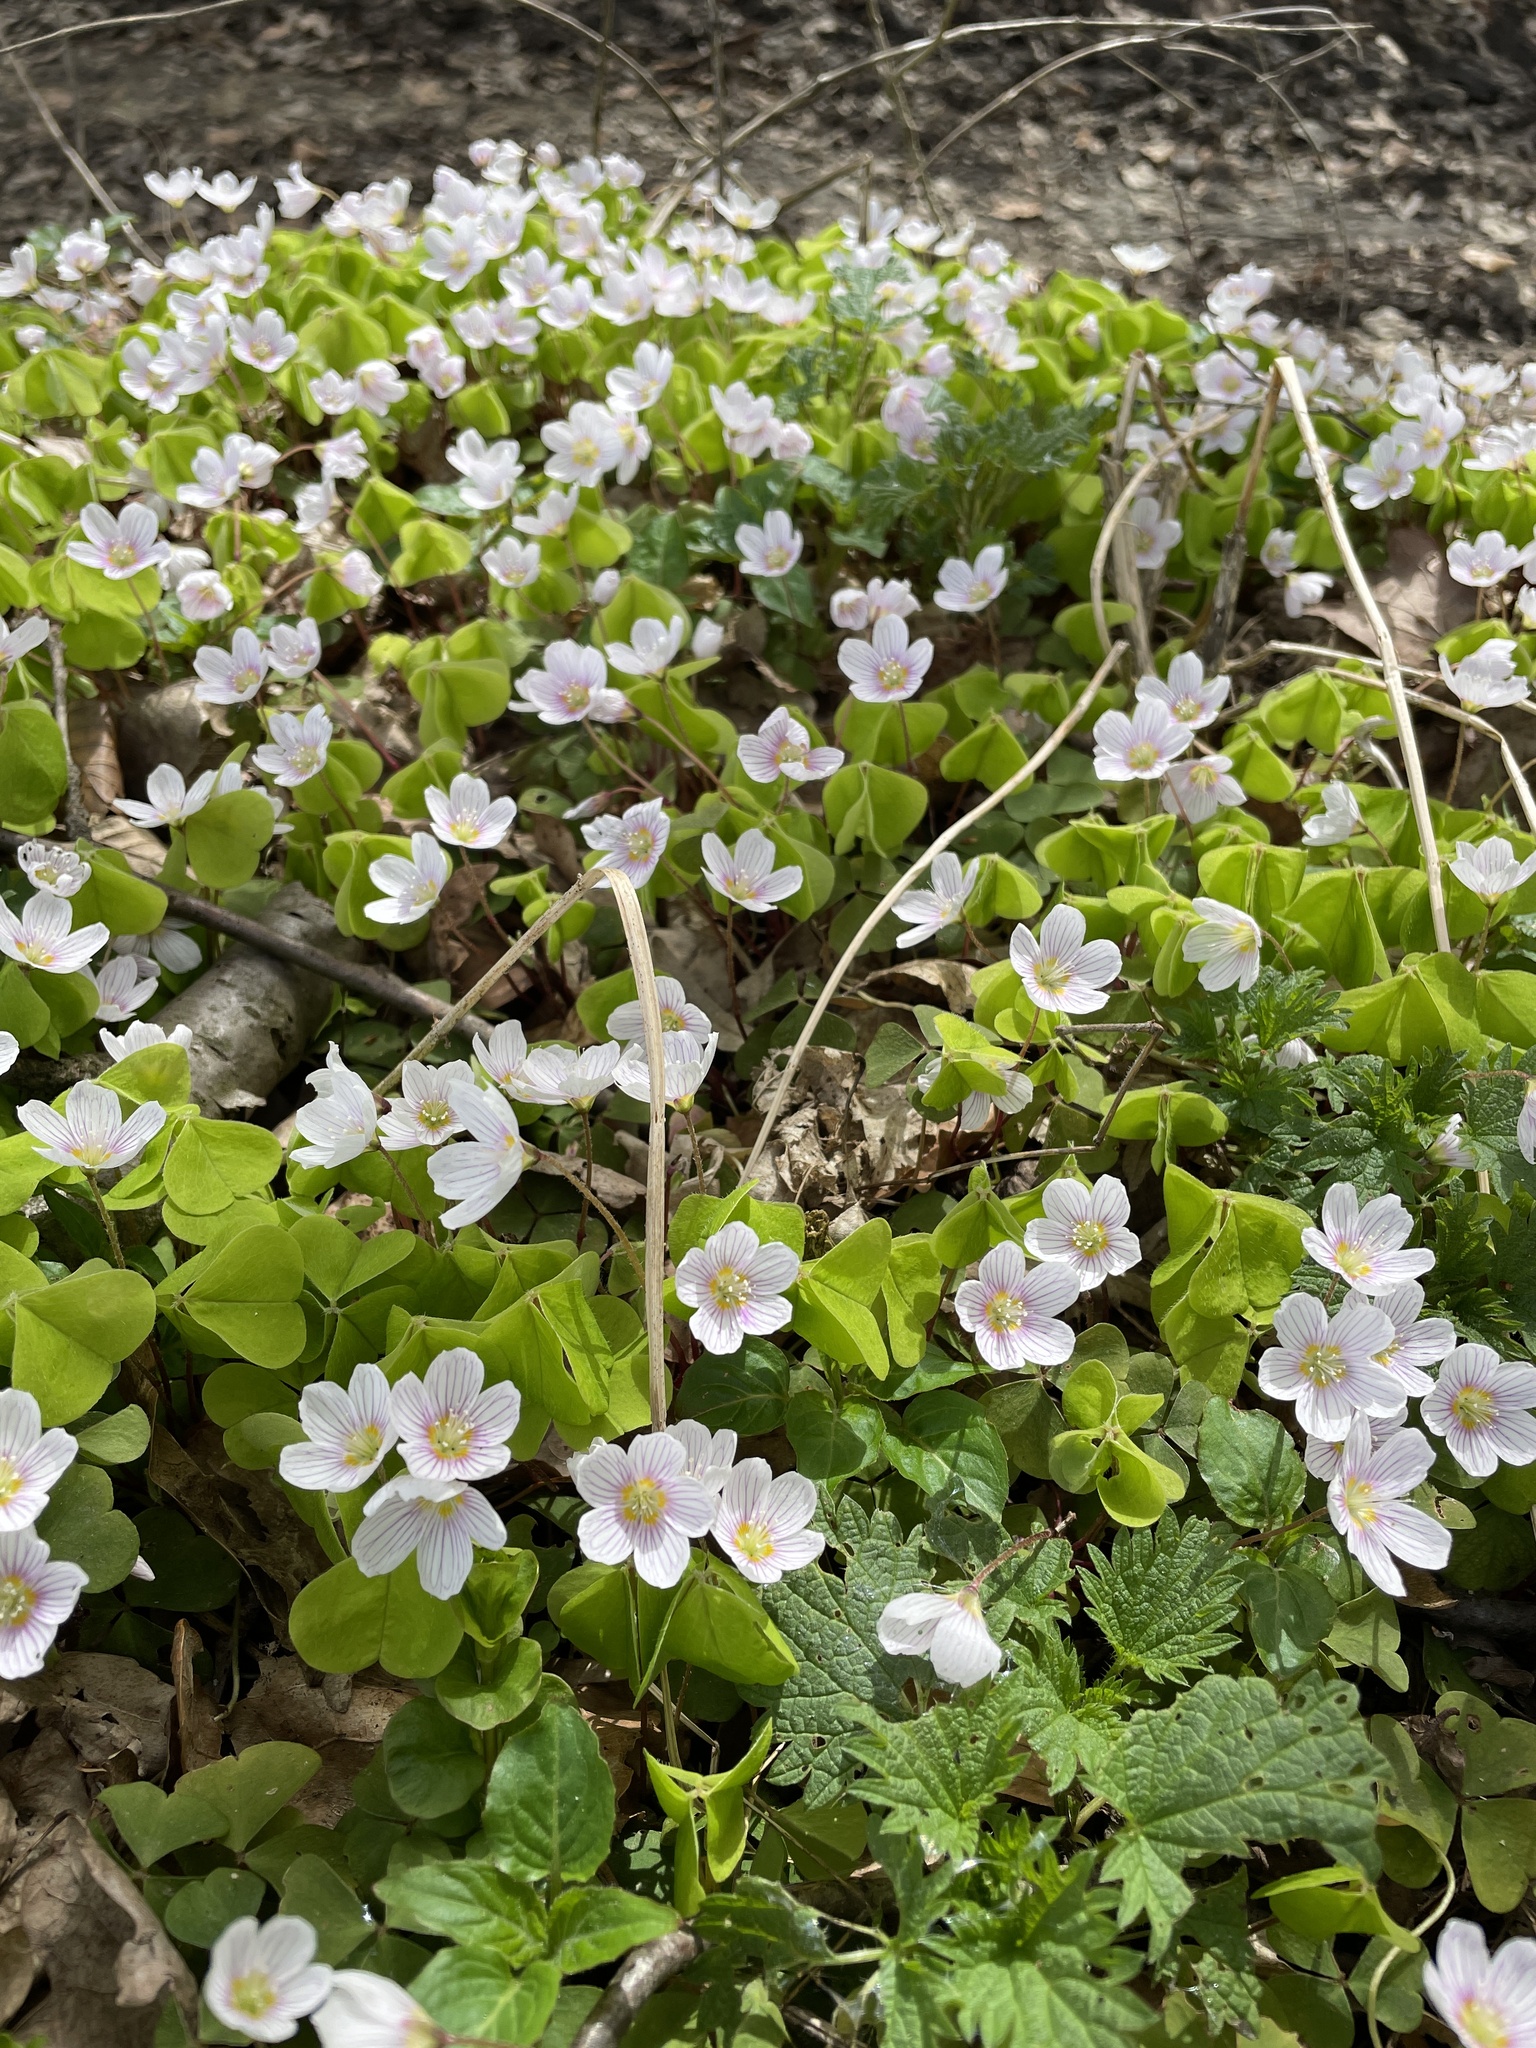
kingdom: Plantae
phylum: Tracheophyta
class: Magnoliopsida
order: Oxalidales
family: Oxalidaceae
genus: Oxalis
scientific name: Oxalis acetosella
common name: Wood-sorrel
